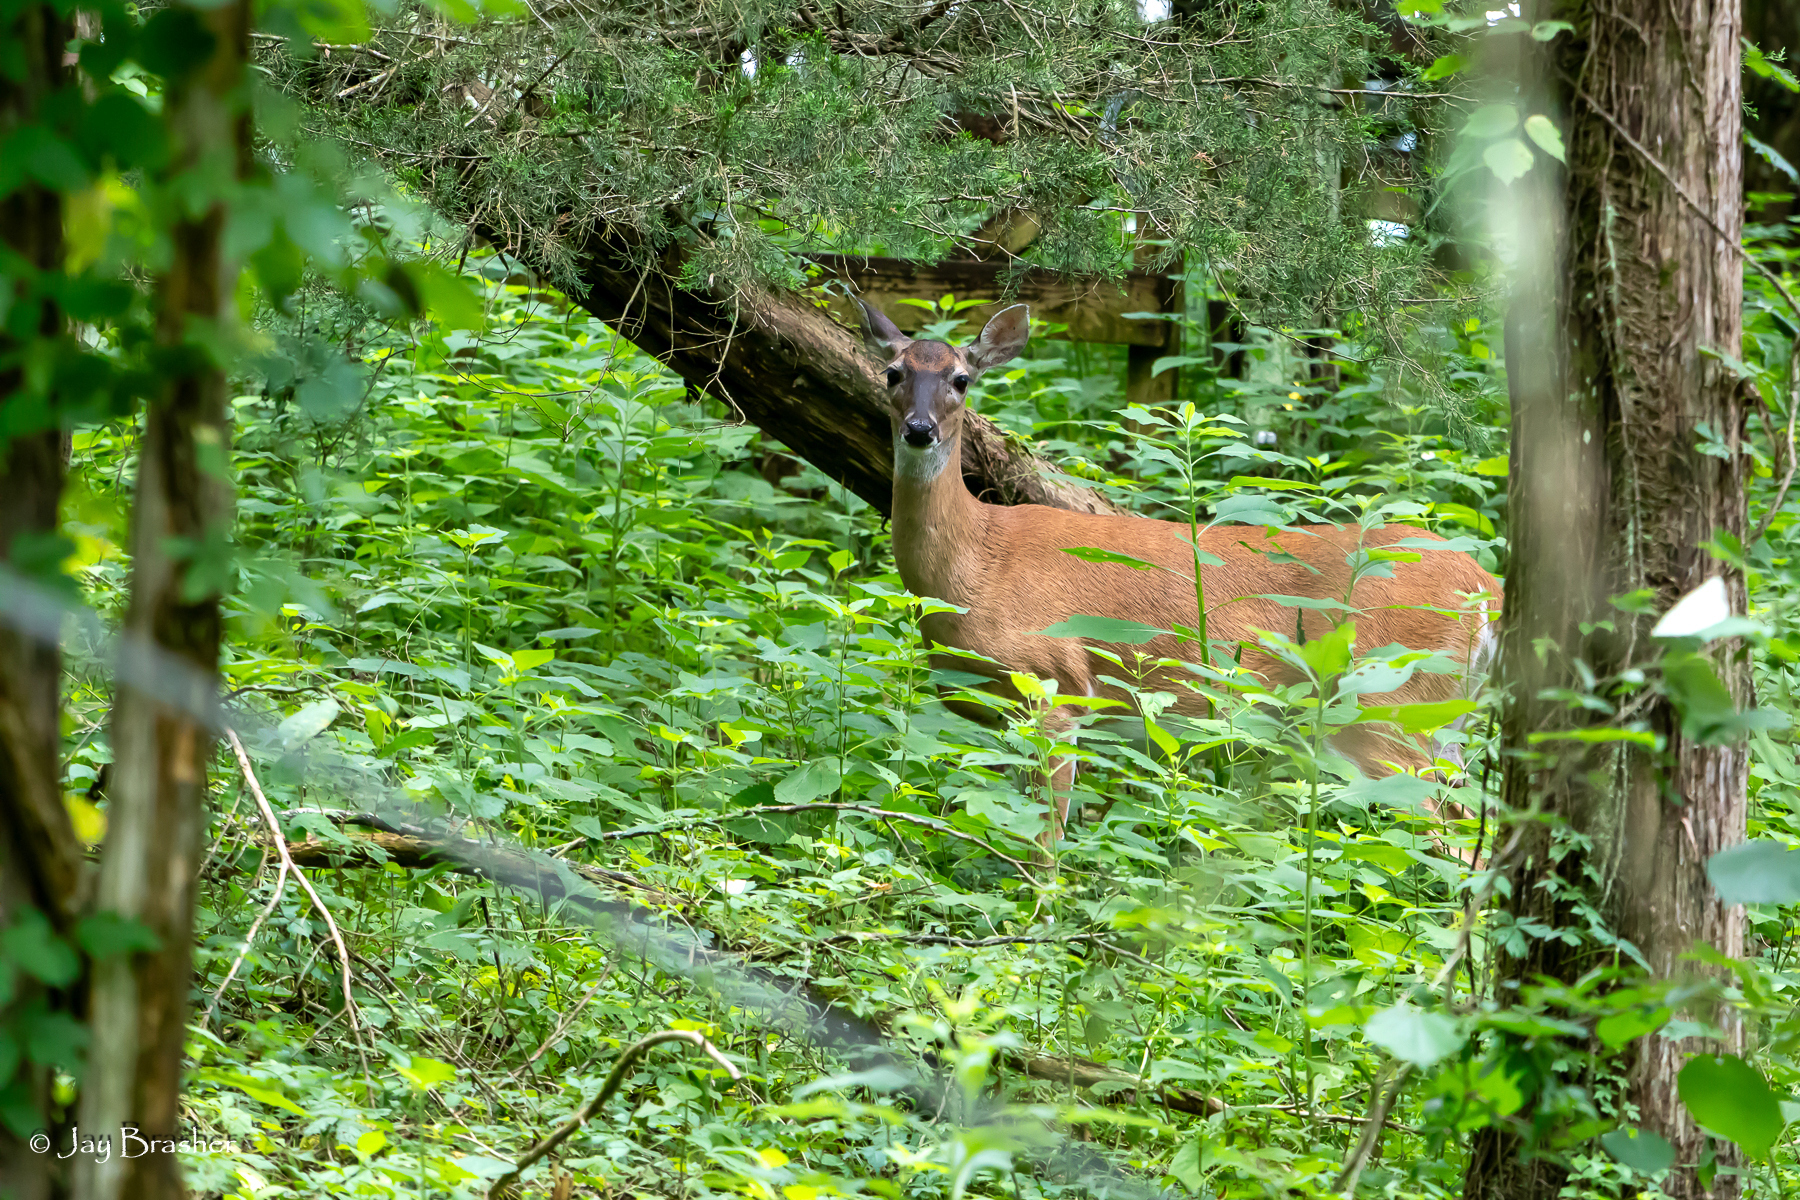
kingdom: Animalia
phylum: Chordata
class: Mammalia
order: Artiodactyla
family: Cervidae
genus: Odocoileus
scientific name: Odocoileus virginianus
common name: White-tailed deer
